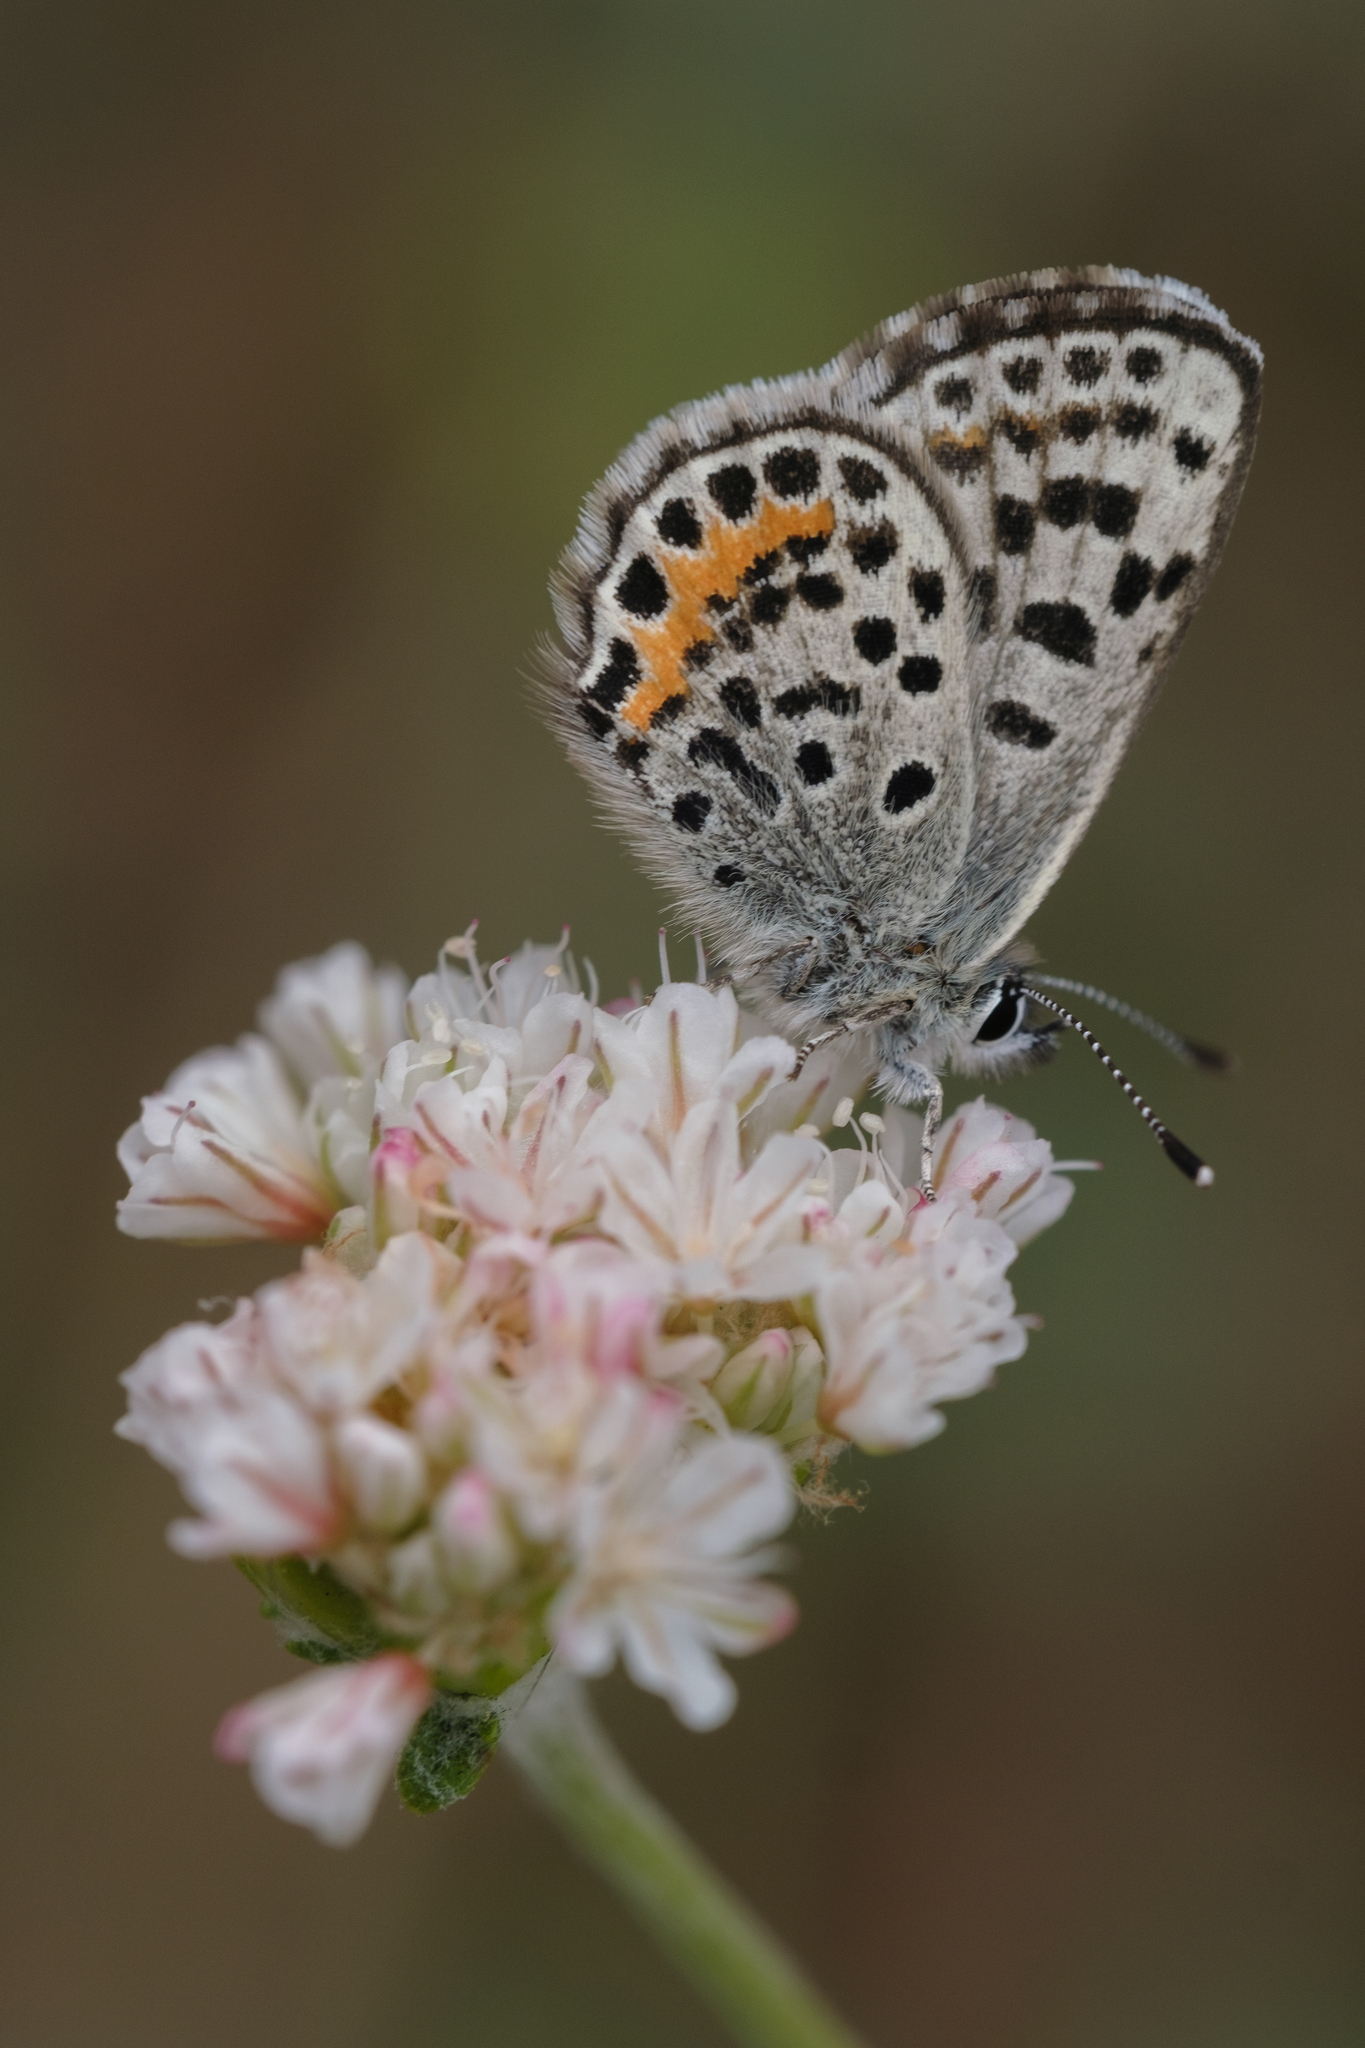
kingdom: Animalia
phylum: Arthropoda
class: Insecta
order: Lepidoptera
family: Lycaenidae
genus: Euphilotes
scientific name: Euphilotes battoides
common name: Square-spotted blue
